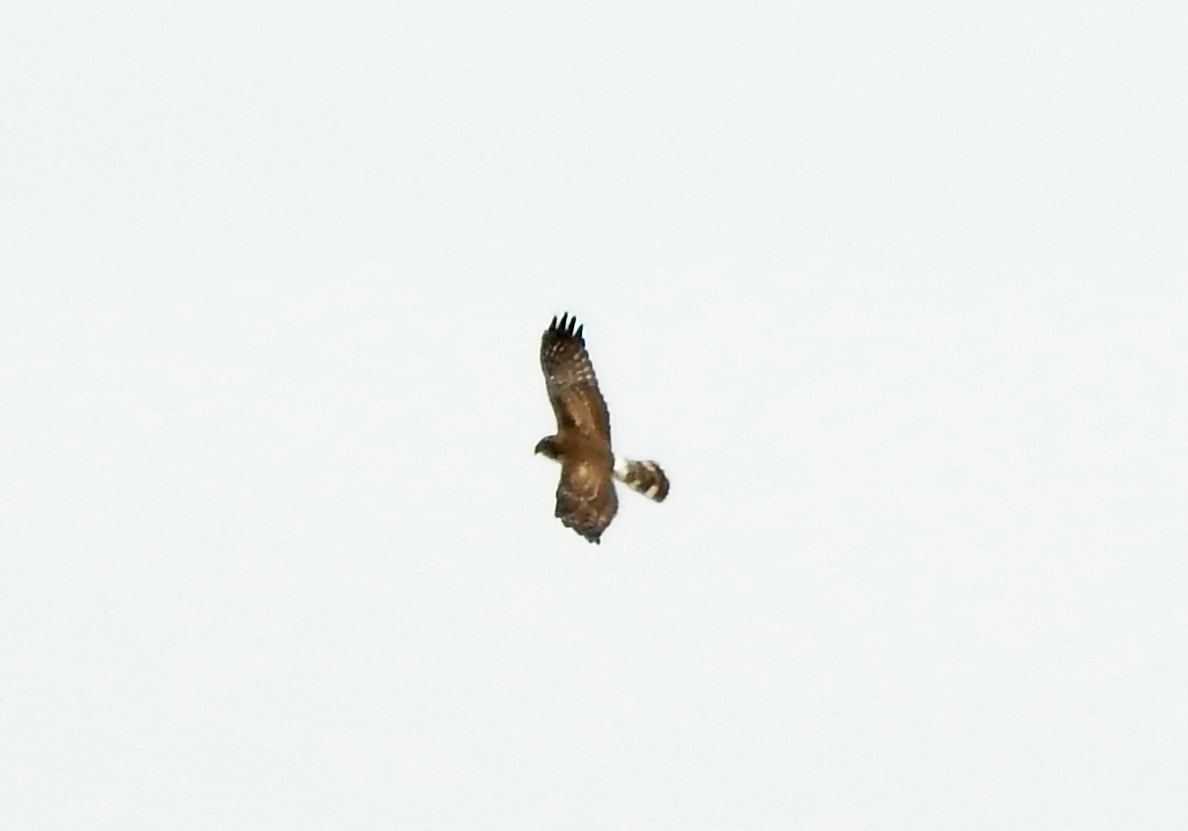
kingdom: Animalia
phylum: Chordata
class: Aves
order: Accipitriformes
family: Accipitridae
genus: Circus
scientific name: Circus cyaneus
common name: Hen harrier
